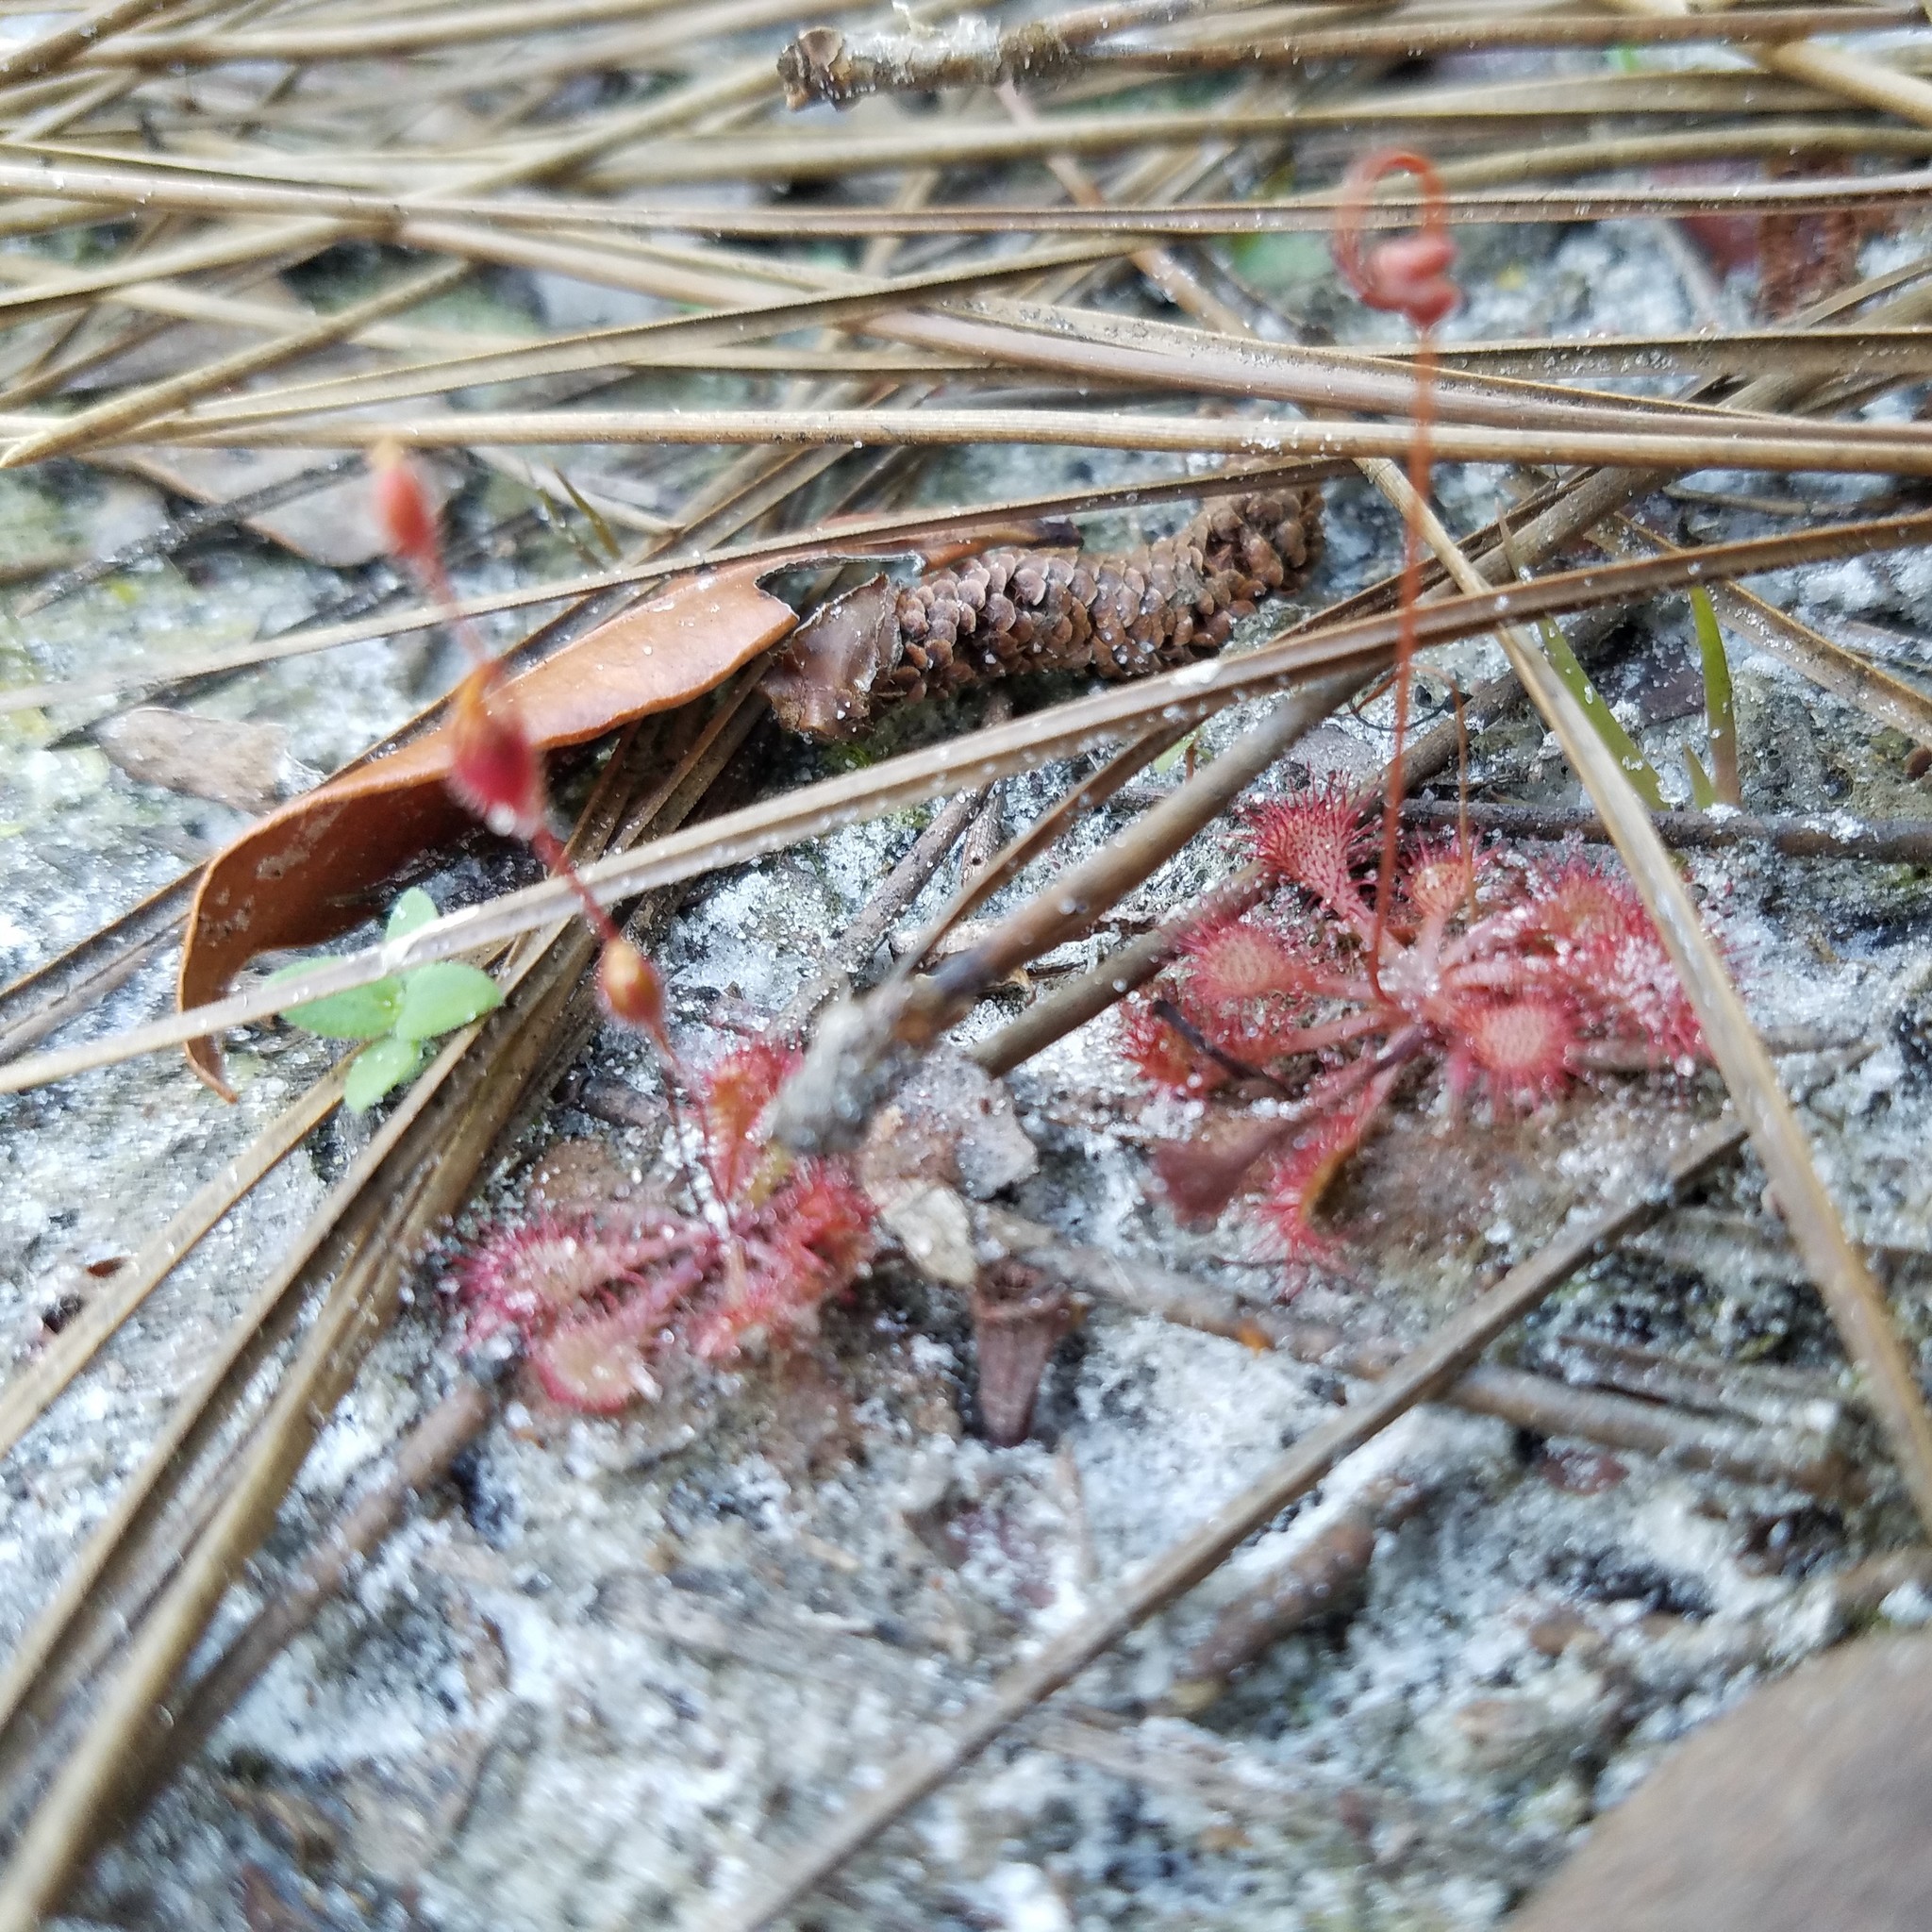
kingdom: Plantae
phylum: Tracheophyta
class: Magnoliopsida
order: Caryophyllales
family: Droseraceae
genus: Drosera
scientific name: Drosera capillaris
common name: Pink sundew
